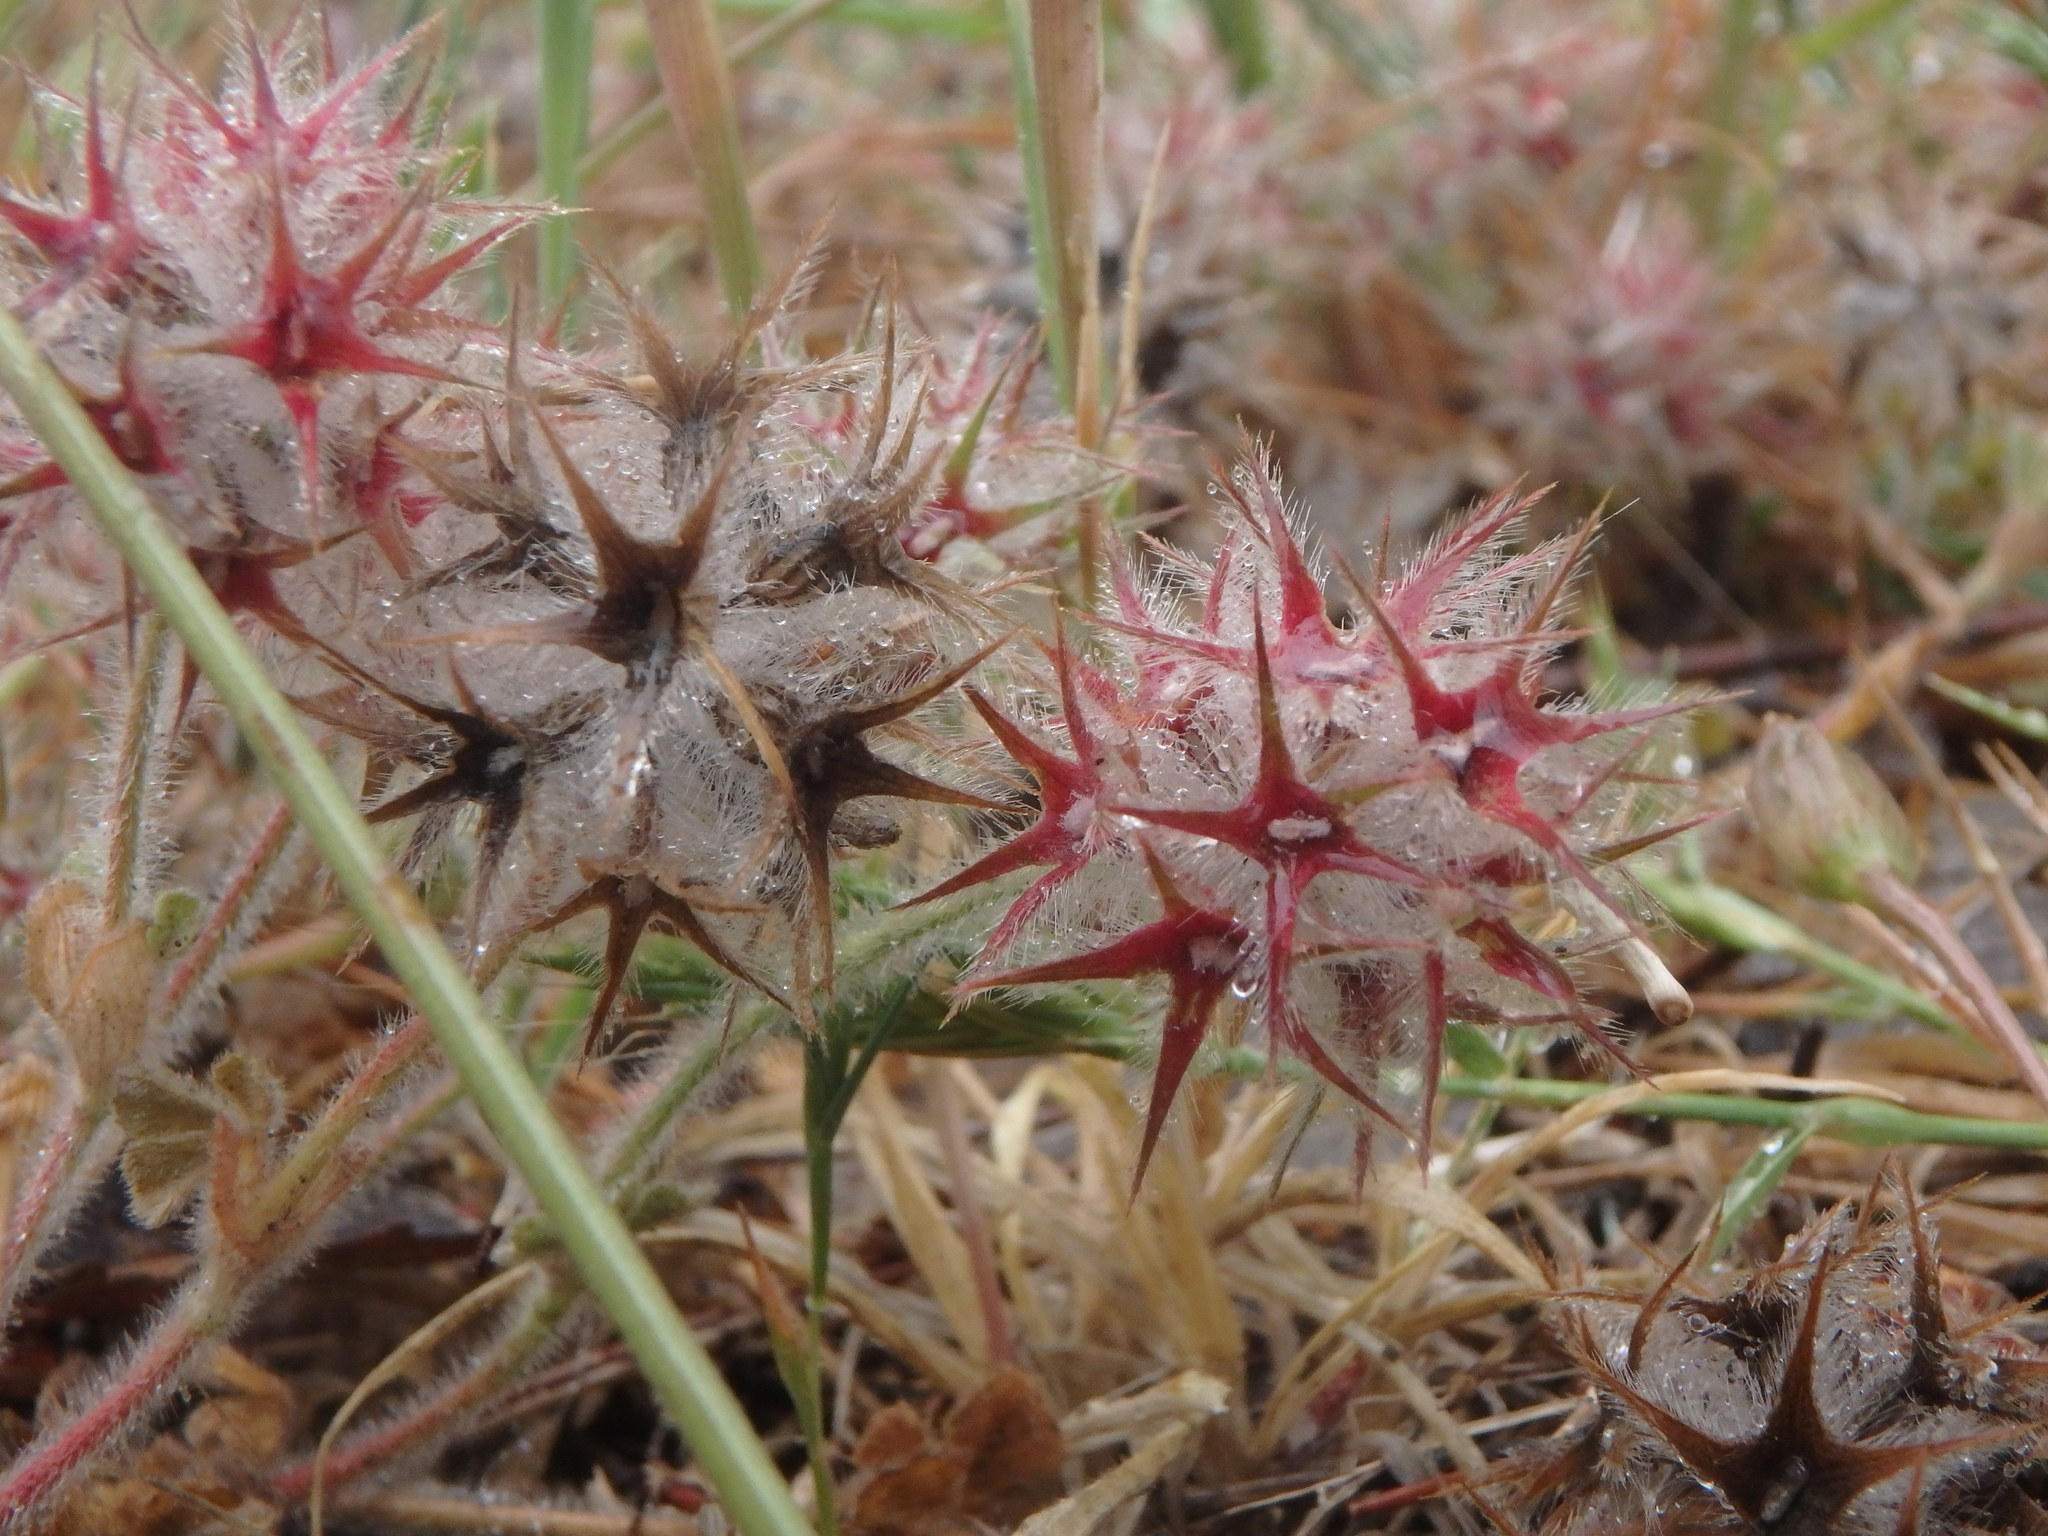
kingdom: Plantae
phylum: Tracheophyta
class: Magnoliopsida
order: Fabales
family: Fabaceae
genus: Trifolium
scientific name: Trifolium stellatum
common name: Starry clover
